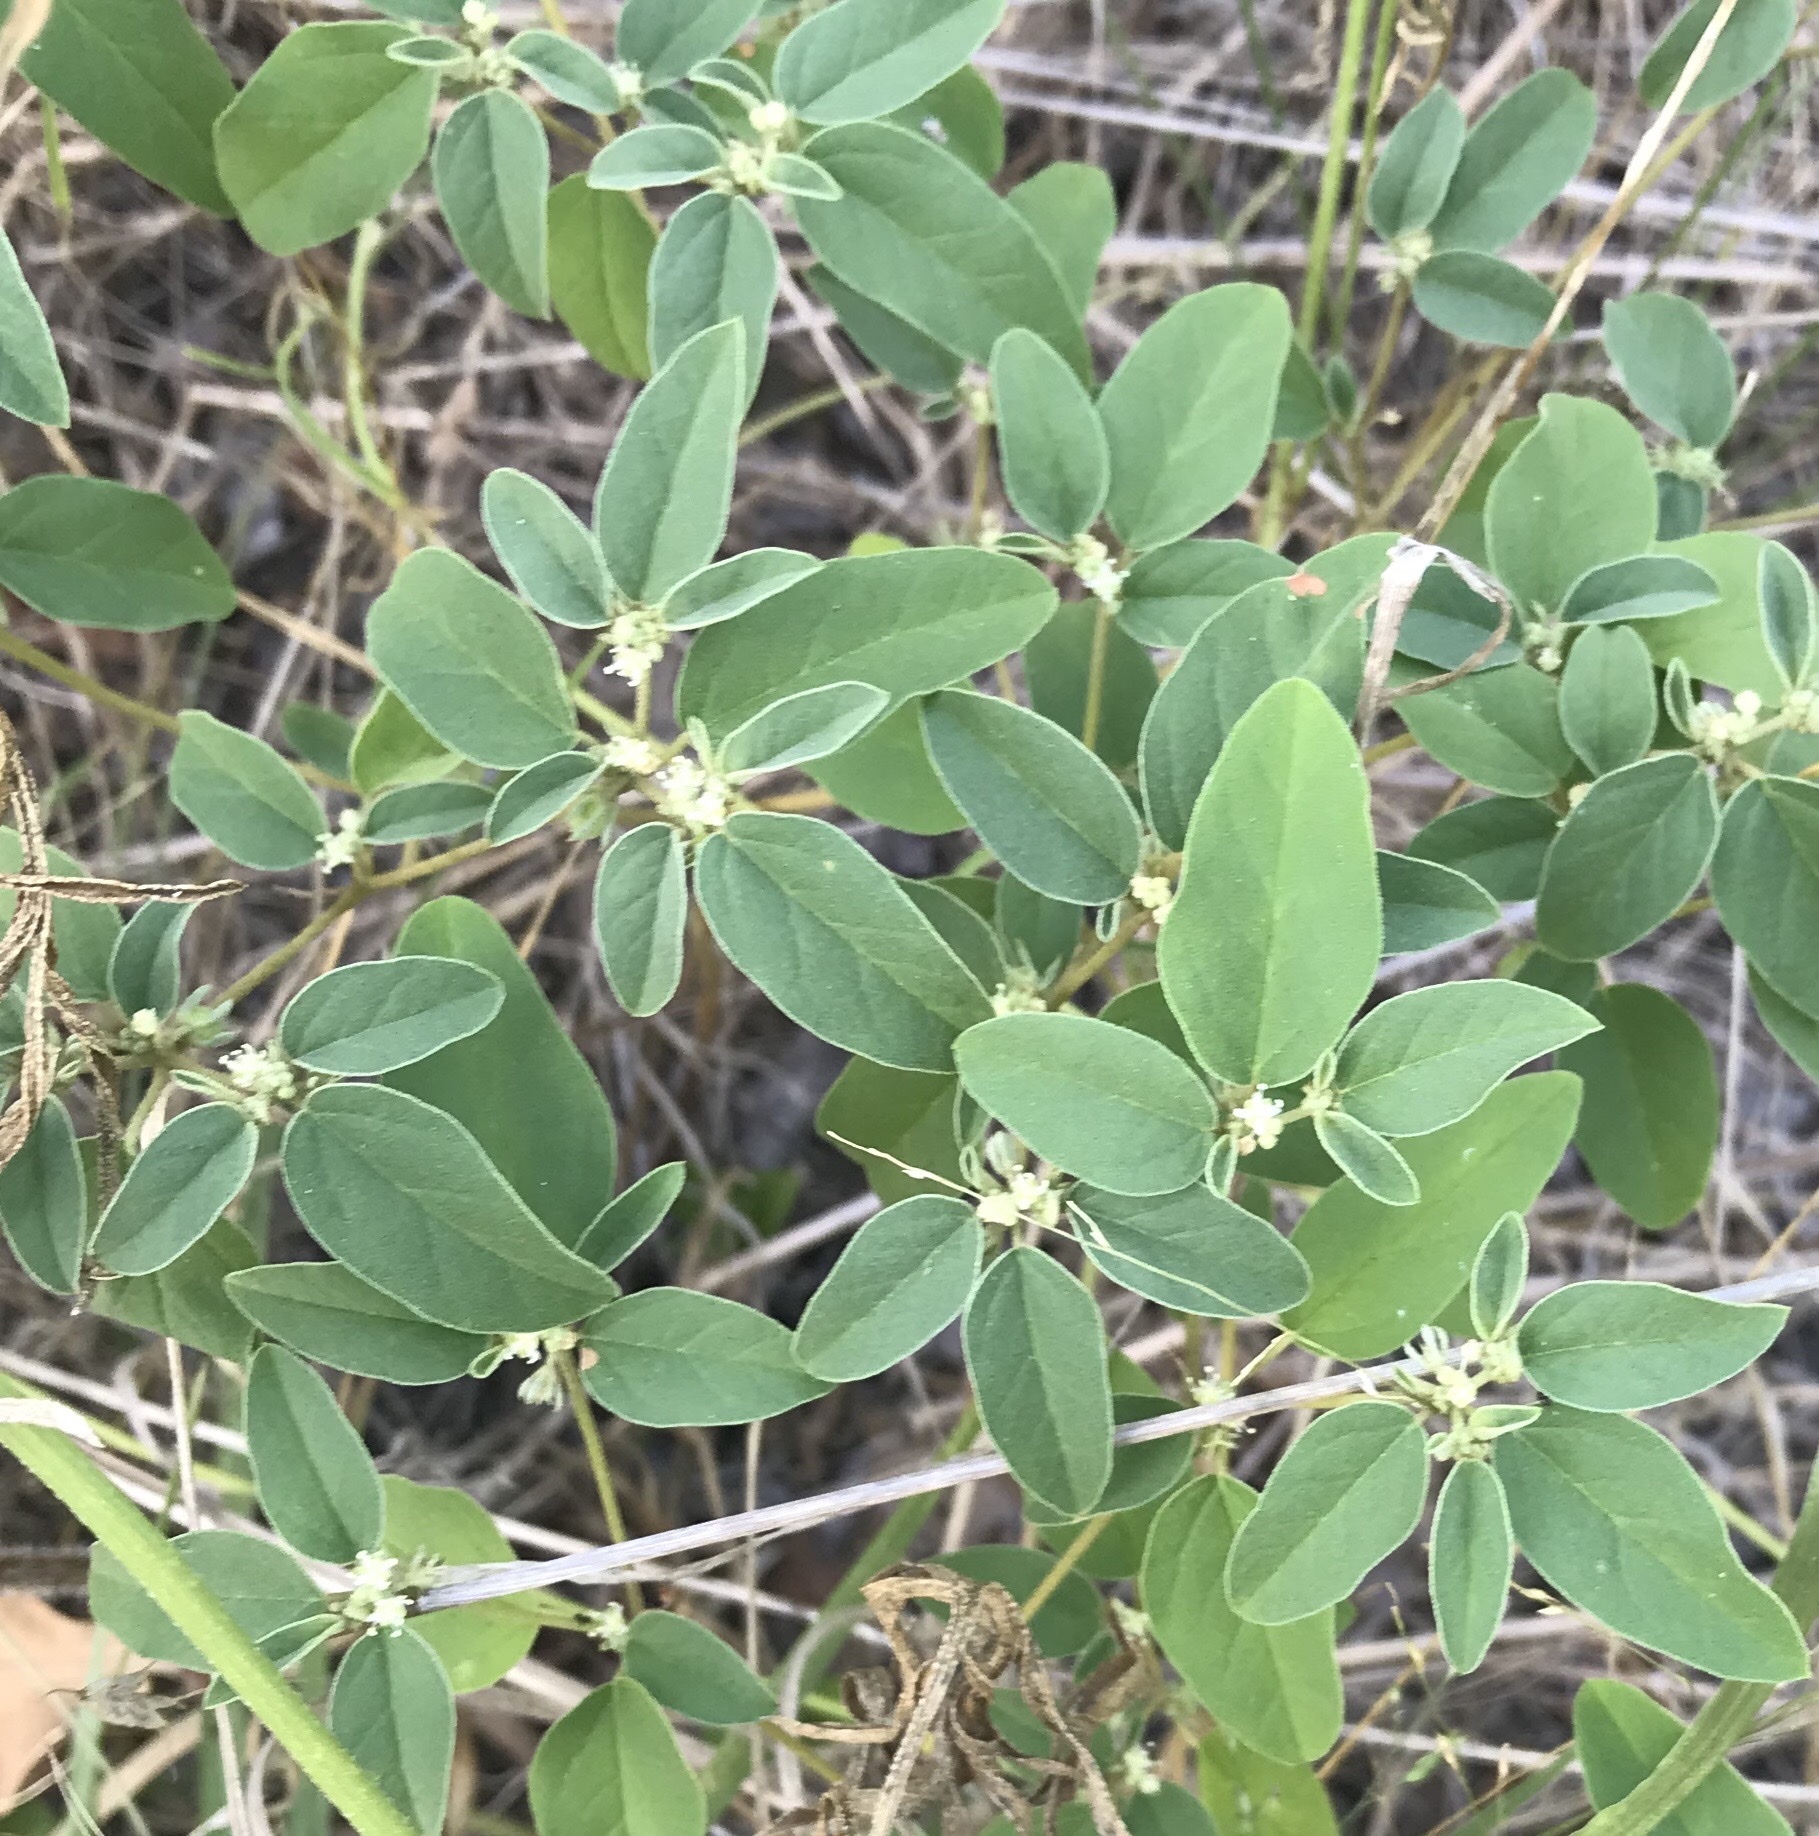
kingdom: Plantae
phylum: Tracheophyta
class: Magnoliopsida
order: Malpighiales
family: Euphorbiaceae
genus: Croton
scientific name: Croton monanthogynus
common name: One-seed croton
